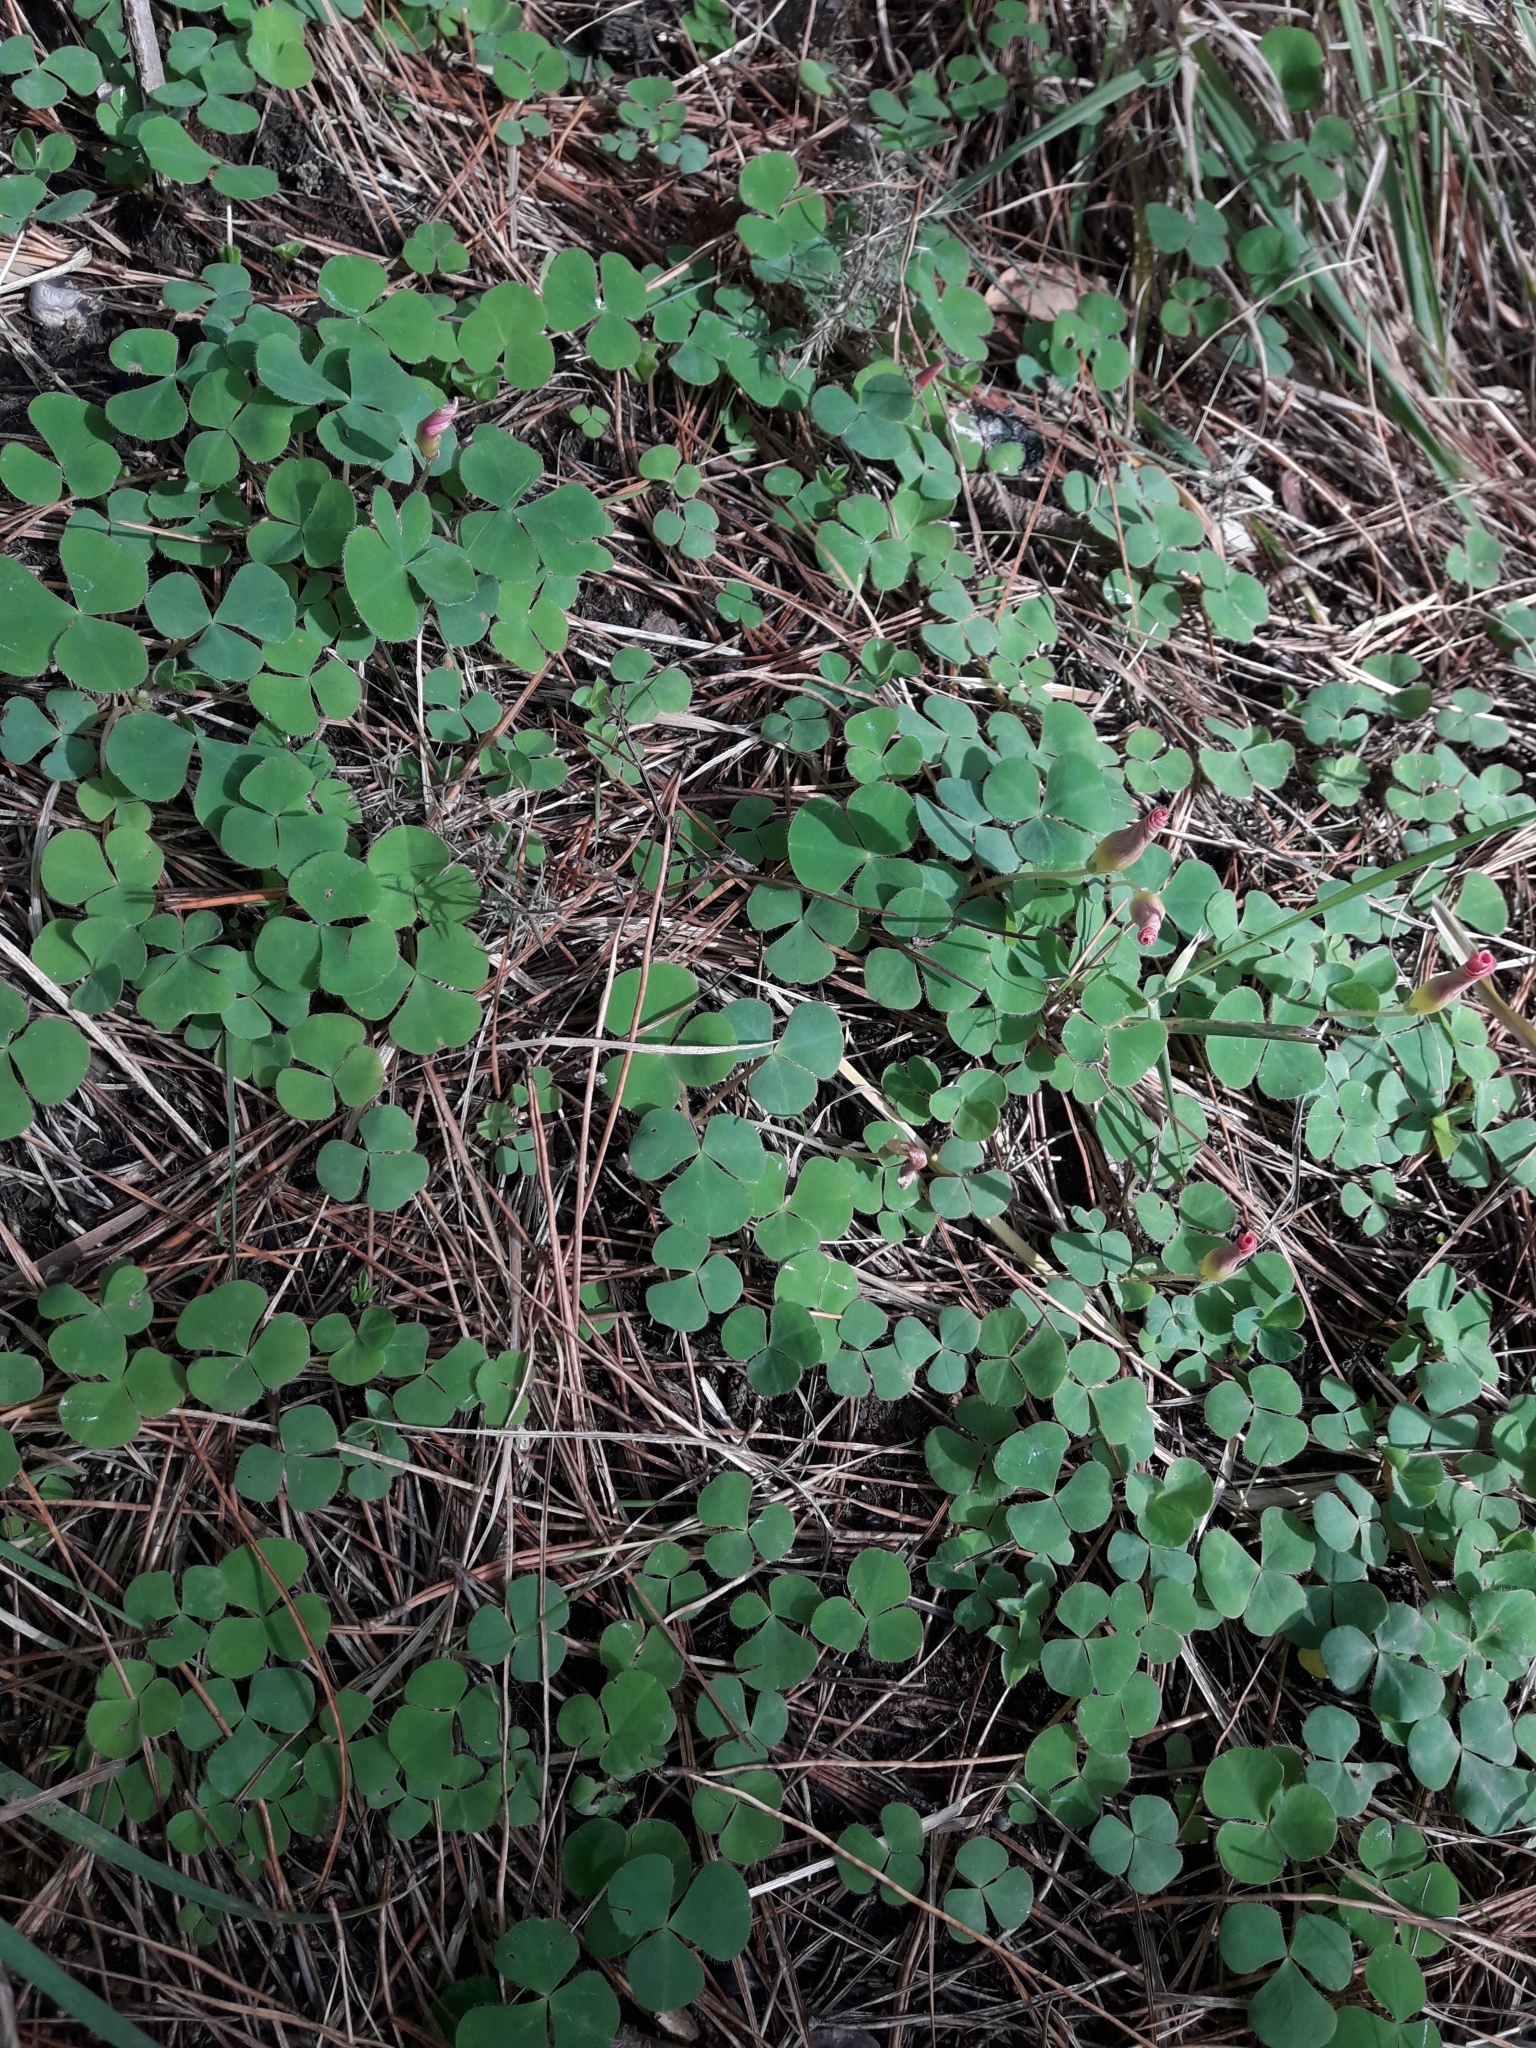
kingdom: Plantae
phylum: Tracheophyta
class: Magnoliopsida
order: Oxalidales
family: Oxalidaceae
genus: Oxalis
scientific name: Oxalis purpurea
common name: Purple woodsorrel
